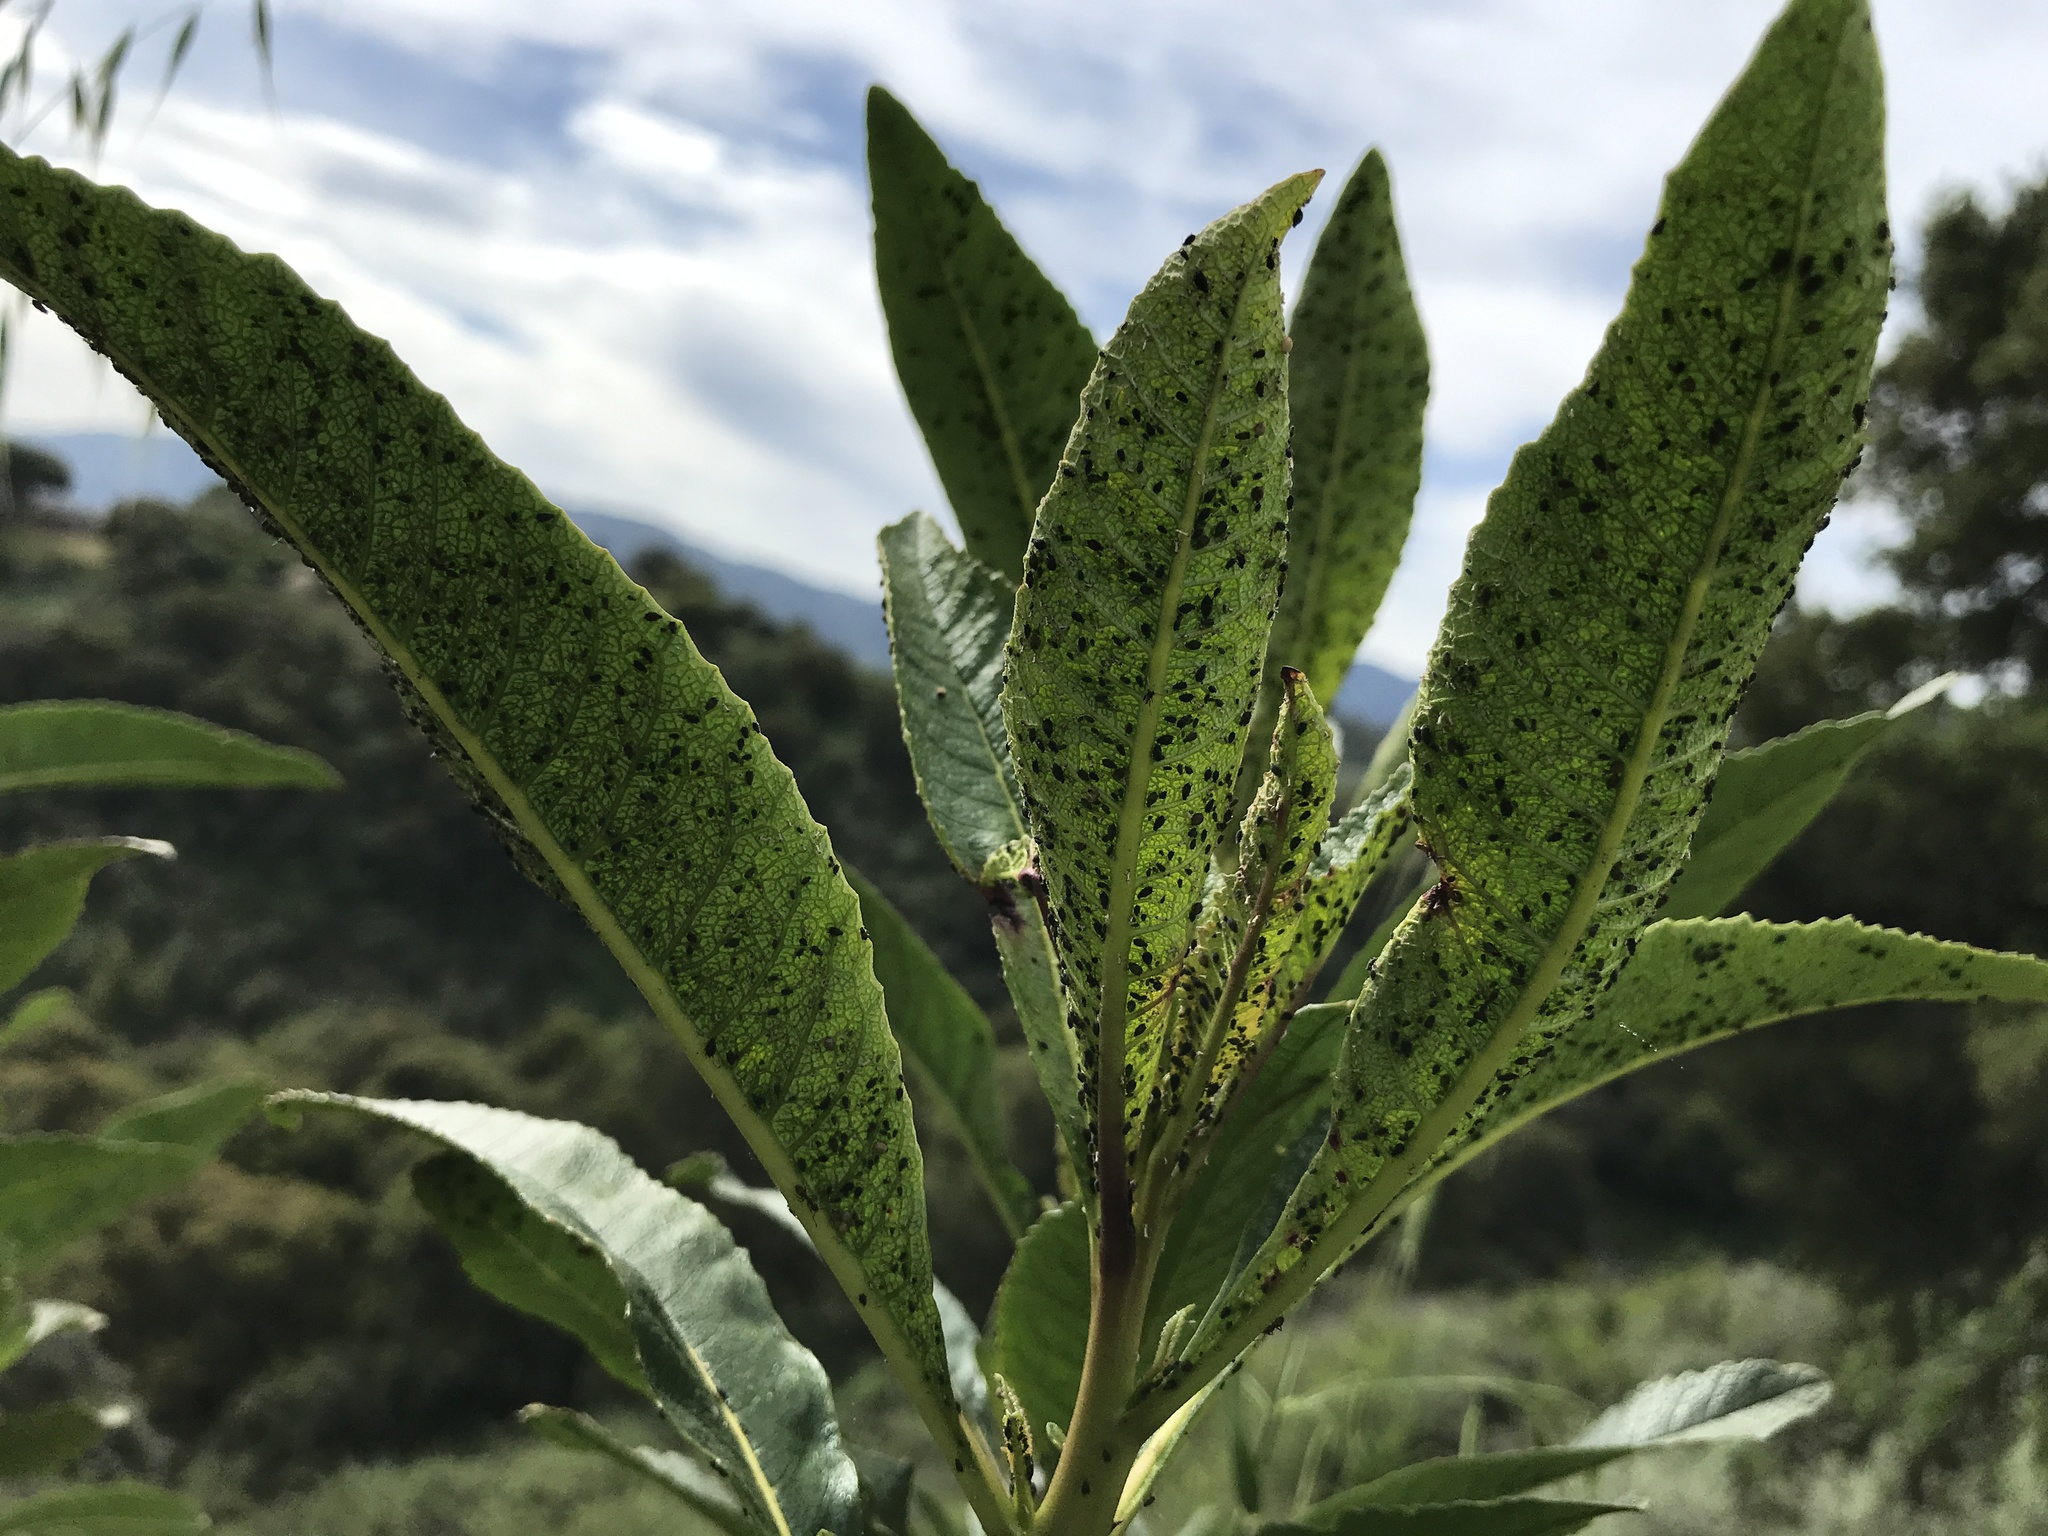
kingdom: Plantae
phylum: Tracheophyta
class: Magnoliopsida
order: Boraginales
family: Namaceae
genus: Eriodictyon
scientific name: Eriodictyon californicum
